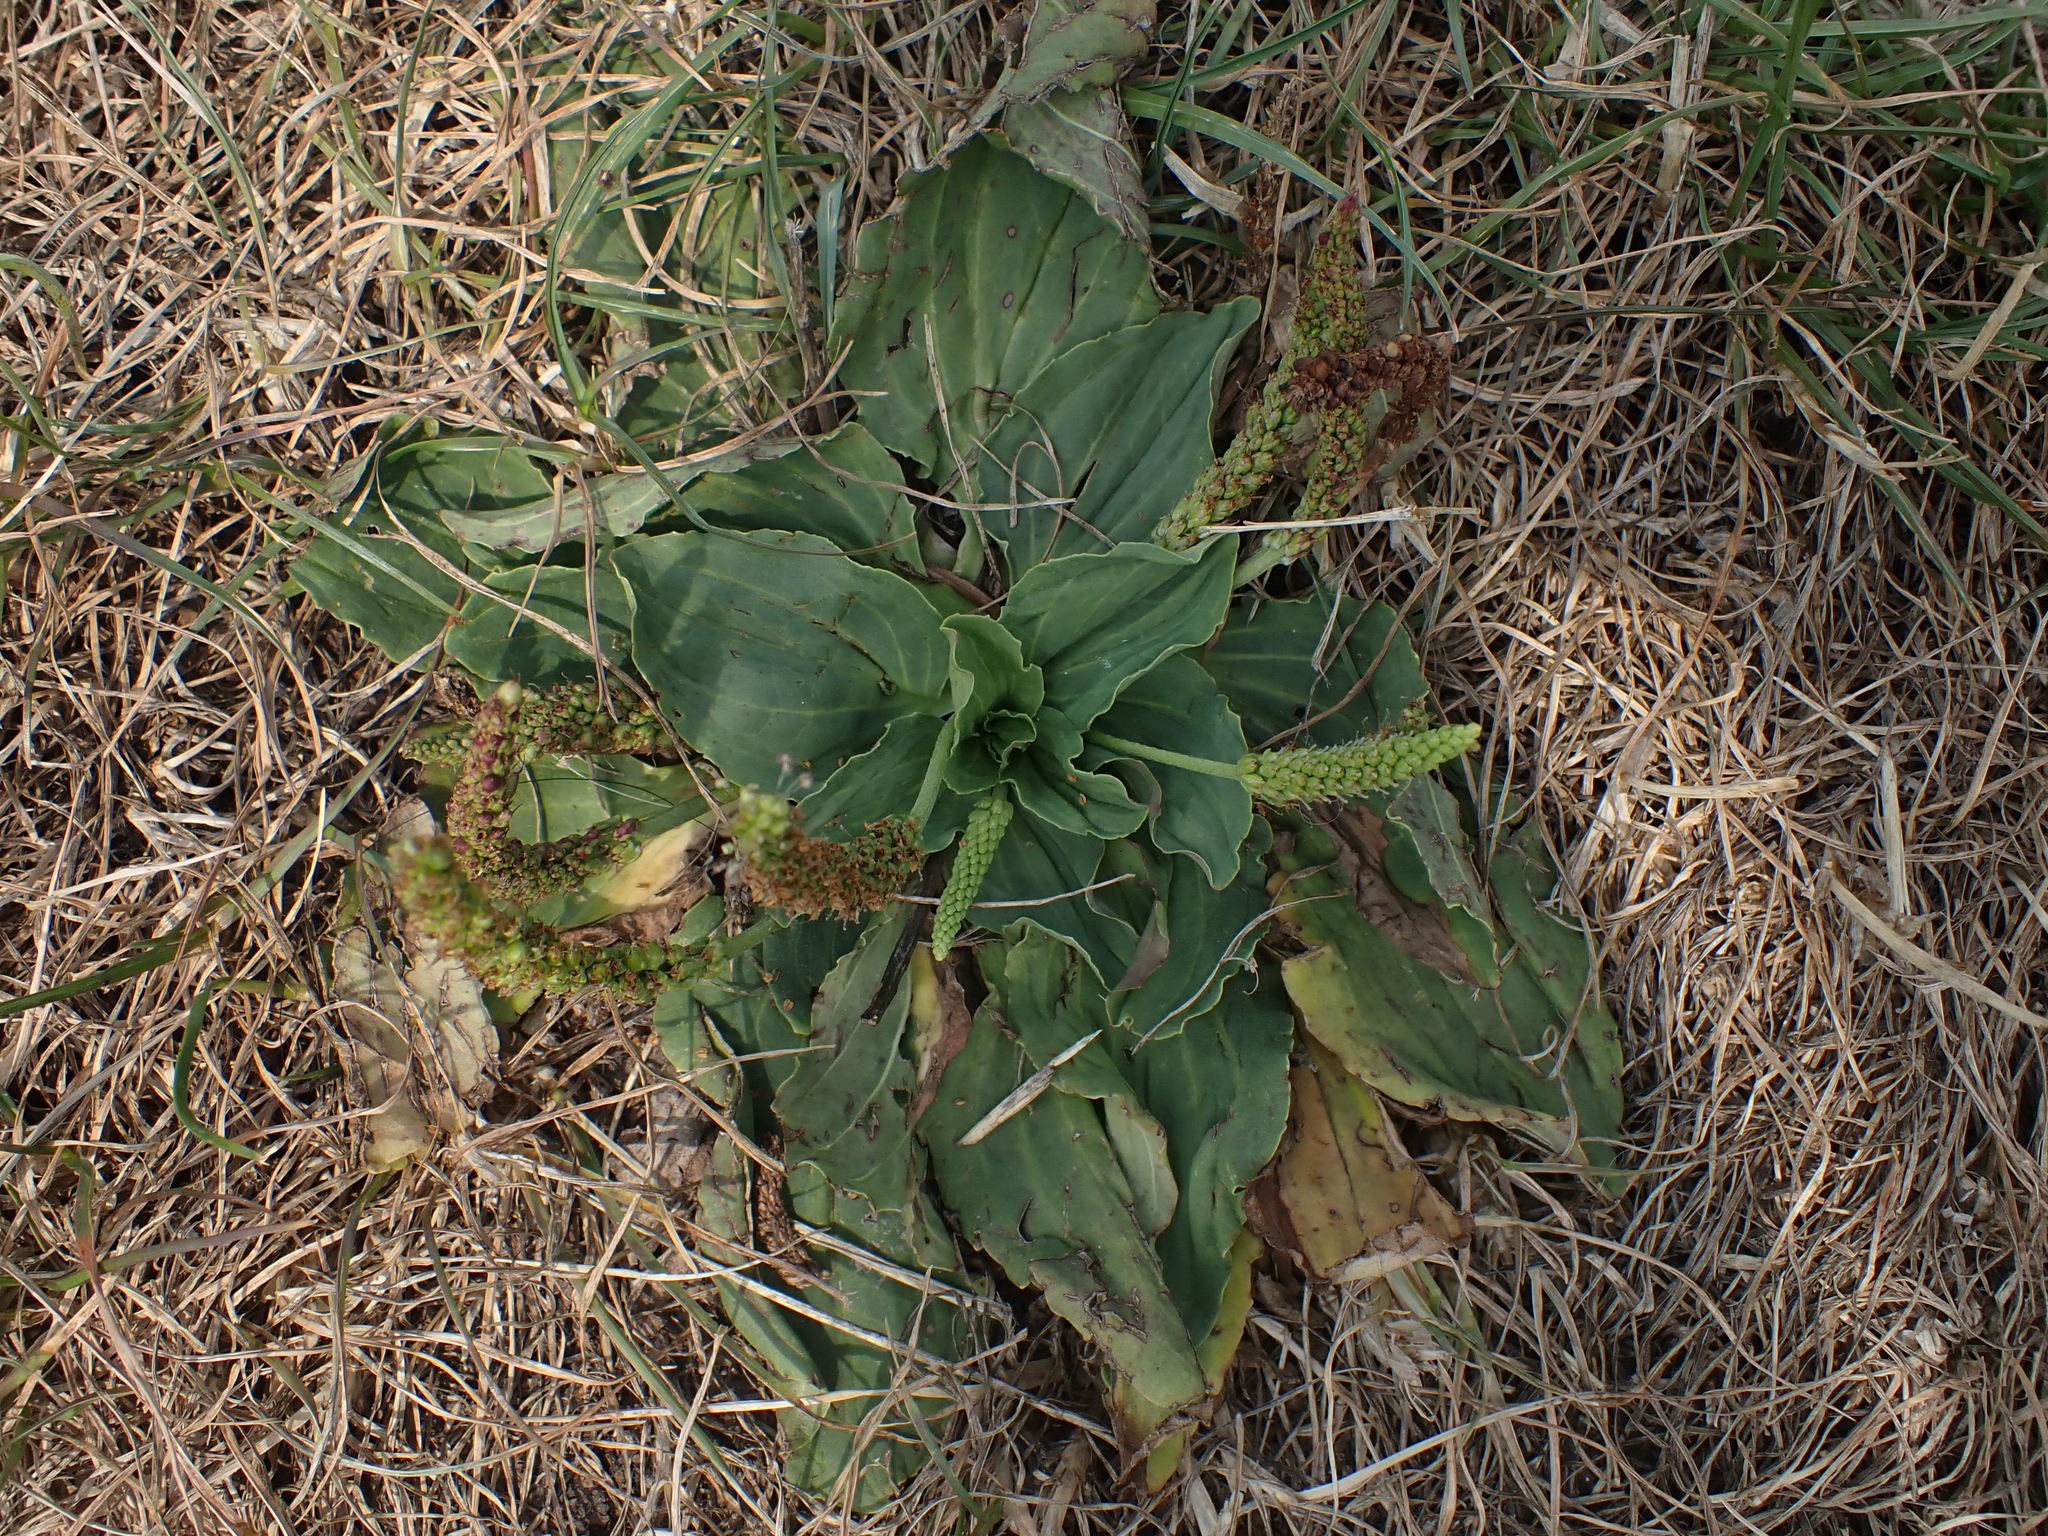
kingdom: Plantae
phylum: Tracheophyta
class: Magnoliopsida
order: Lamiales
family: Plantaginaceae
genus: Plantago
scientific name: Plantago major
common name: Common plantain
